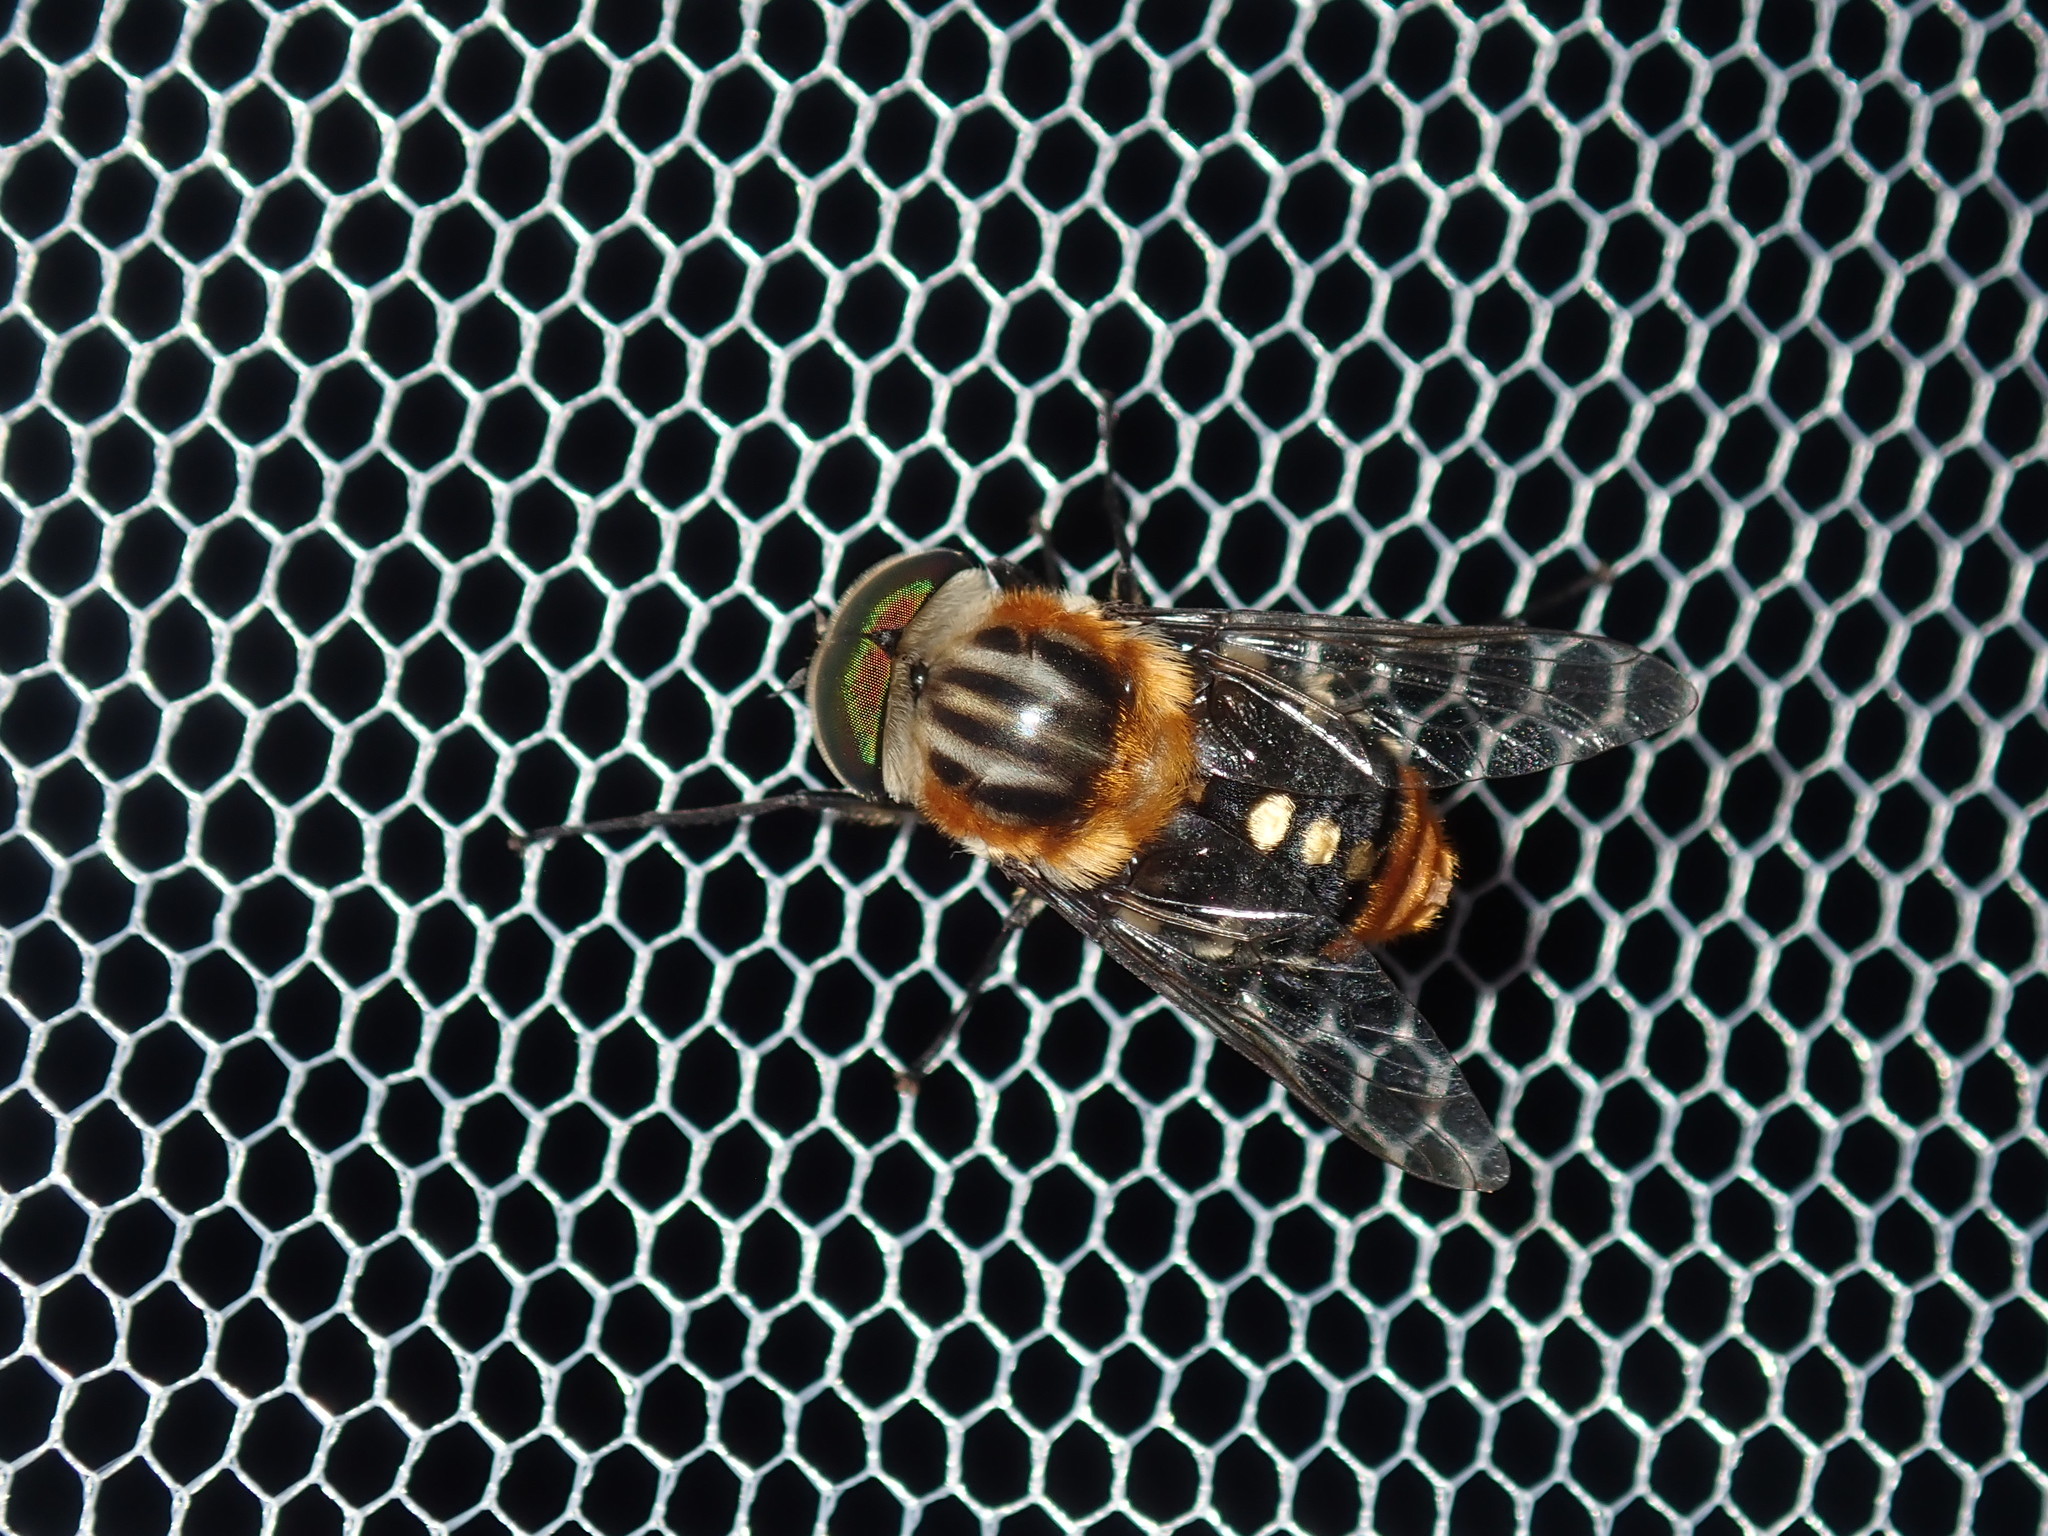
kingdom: Animalia
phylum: Arthropoda
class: Insecta
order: Diptera
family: Tabanidae
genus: Scaptia
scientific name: Scaptia auriflua
